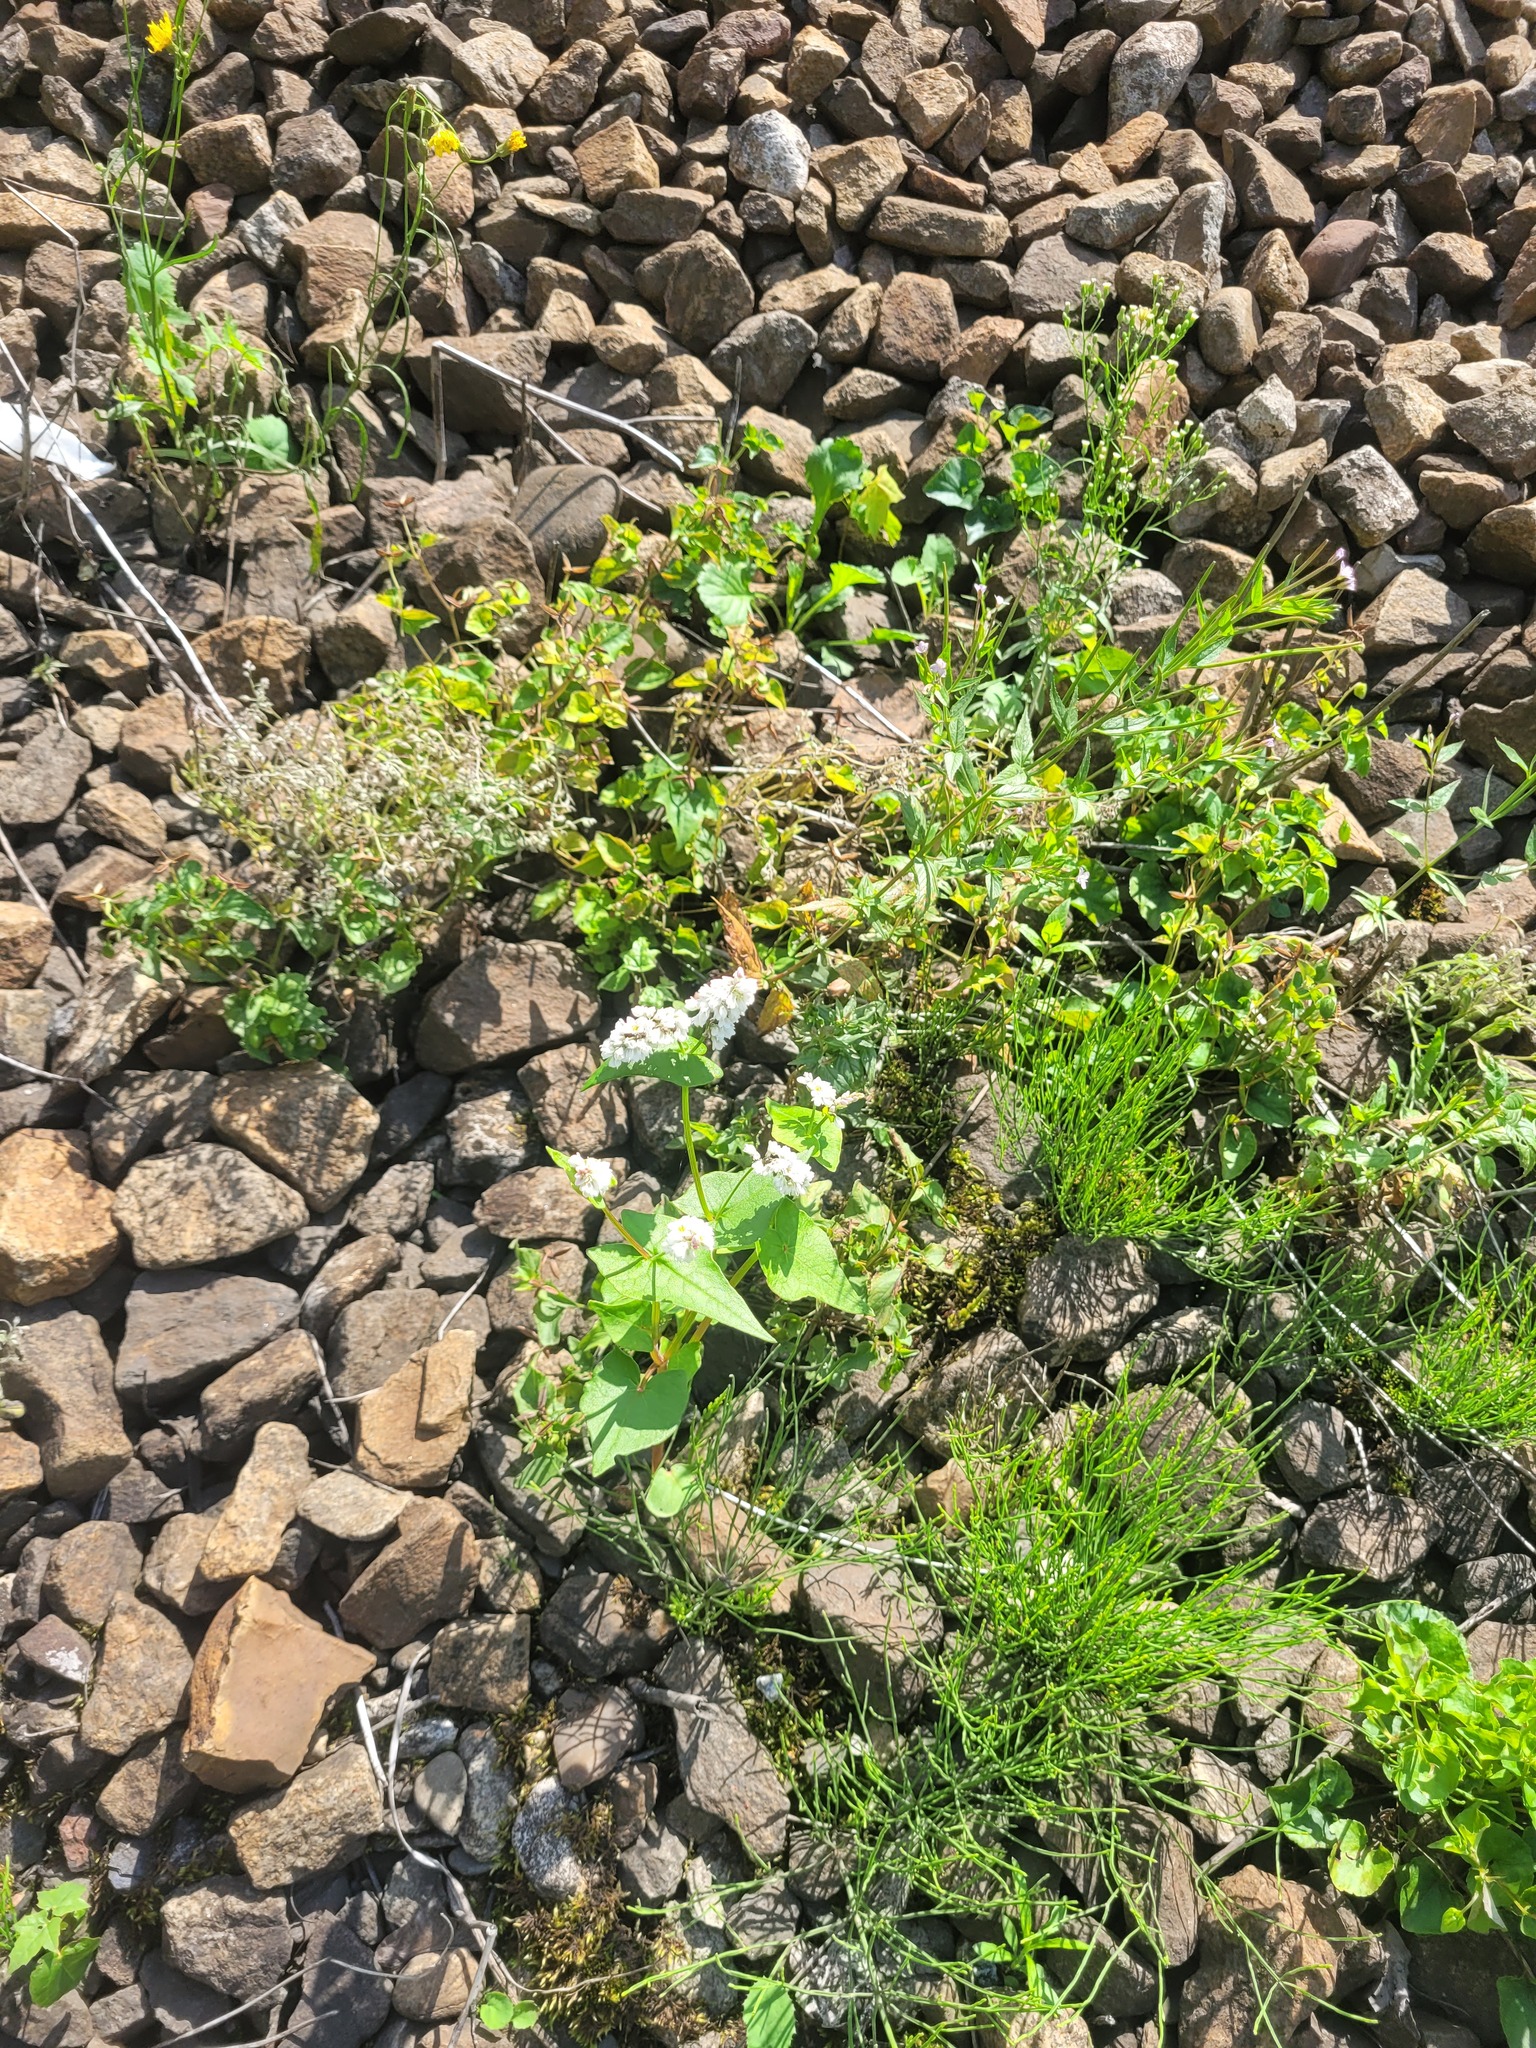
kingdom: Plantae
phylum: Tracheophyta
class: Magnoliopsida
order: Caryophyllales
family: Polygonaceae
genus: Fagopyrum
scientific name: Fagopyrum esculentum
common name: Buckwheat
